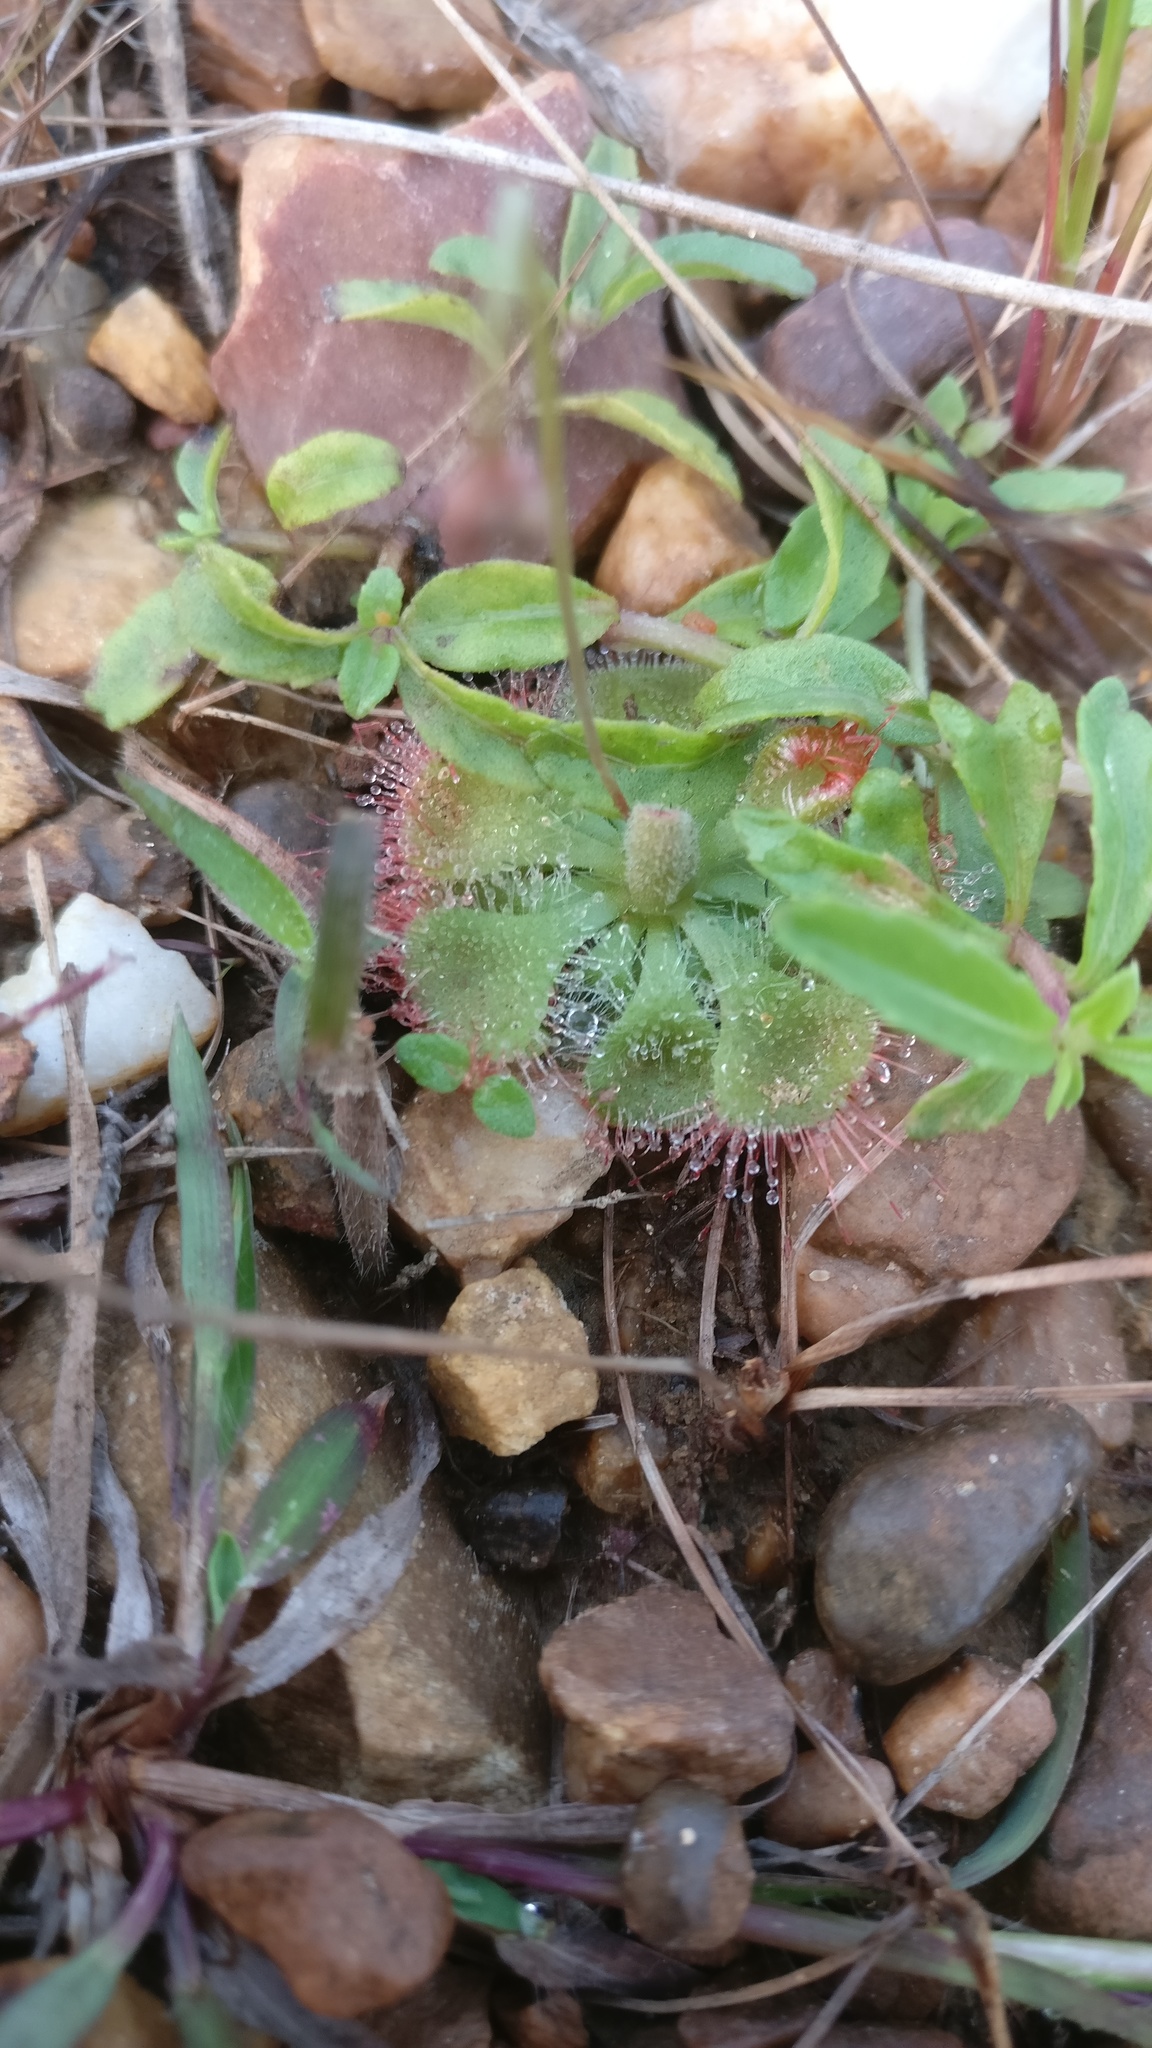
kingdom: Plantae
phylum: Tracheophyta
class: Magnoliopsida
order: Caryophyllales
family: Droseraceae
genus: Drosera
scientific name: Drosera spatulata
